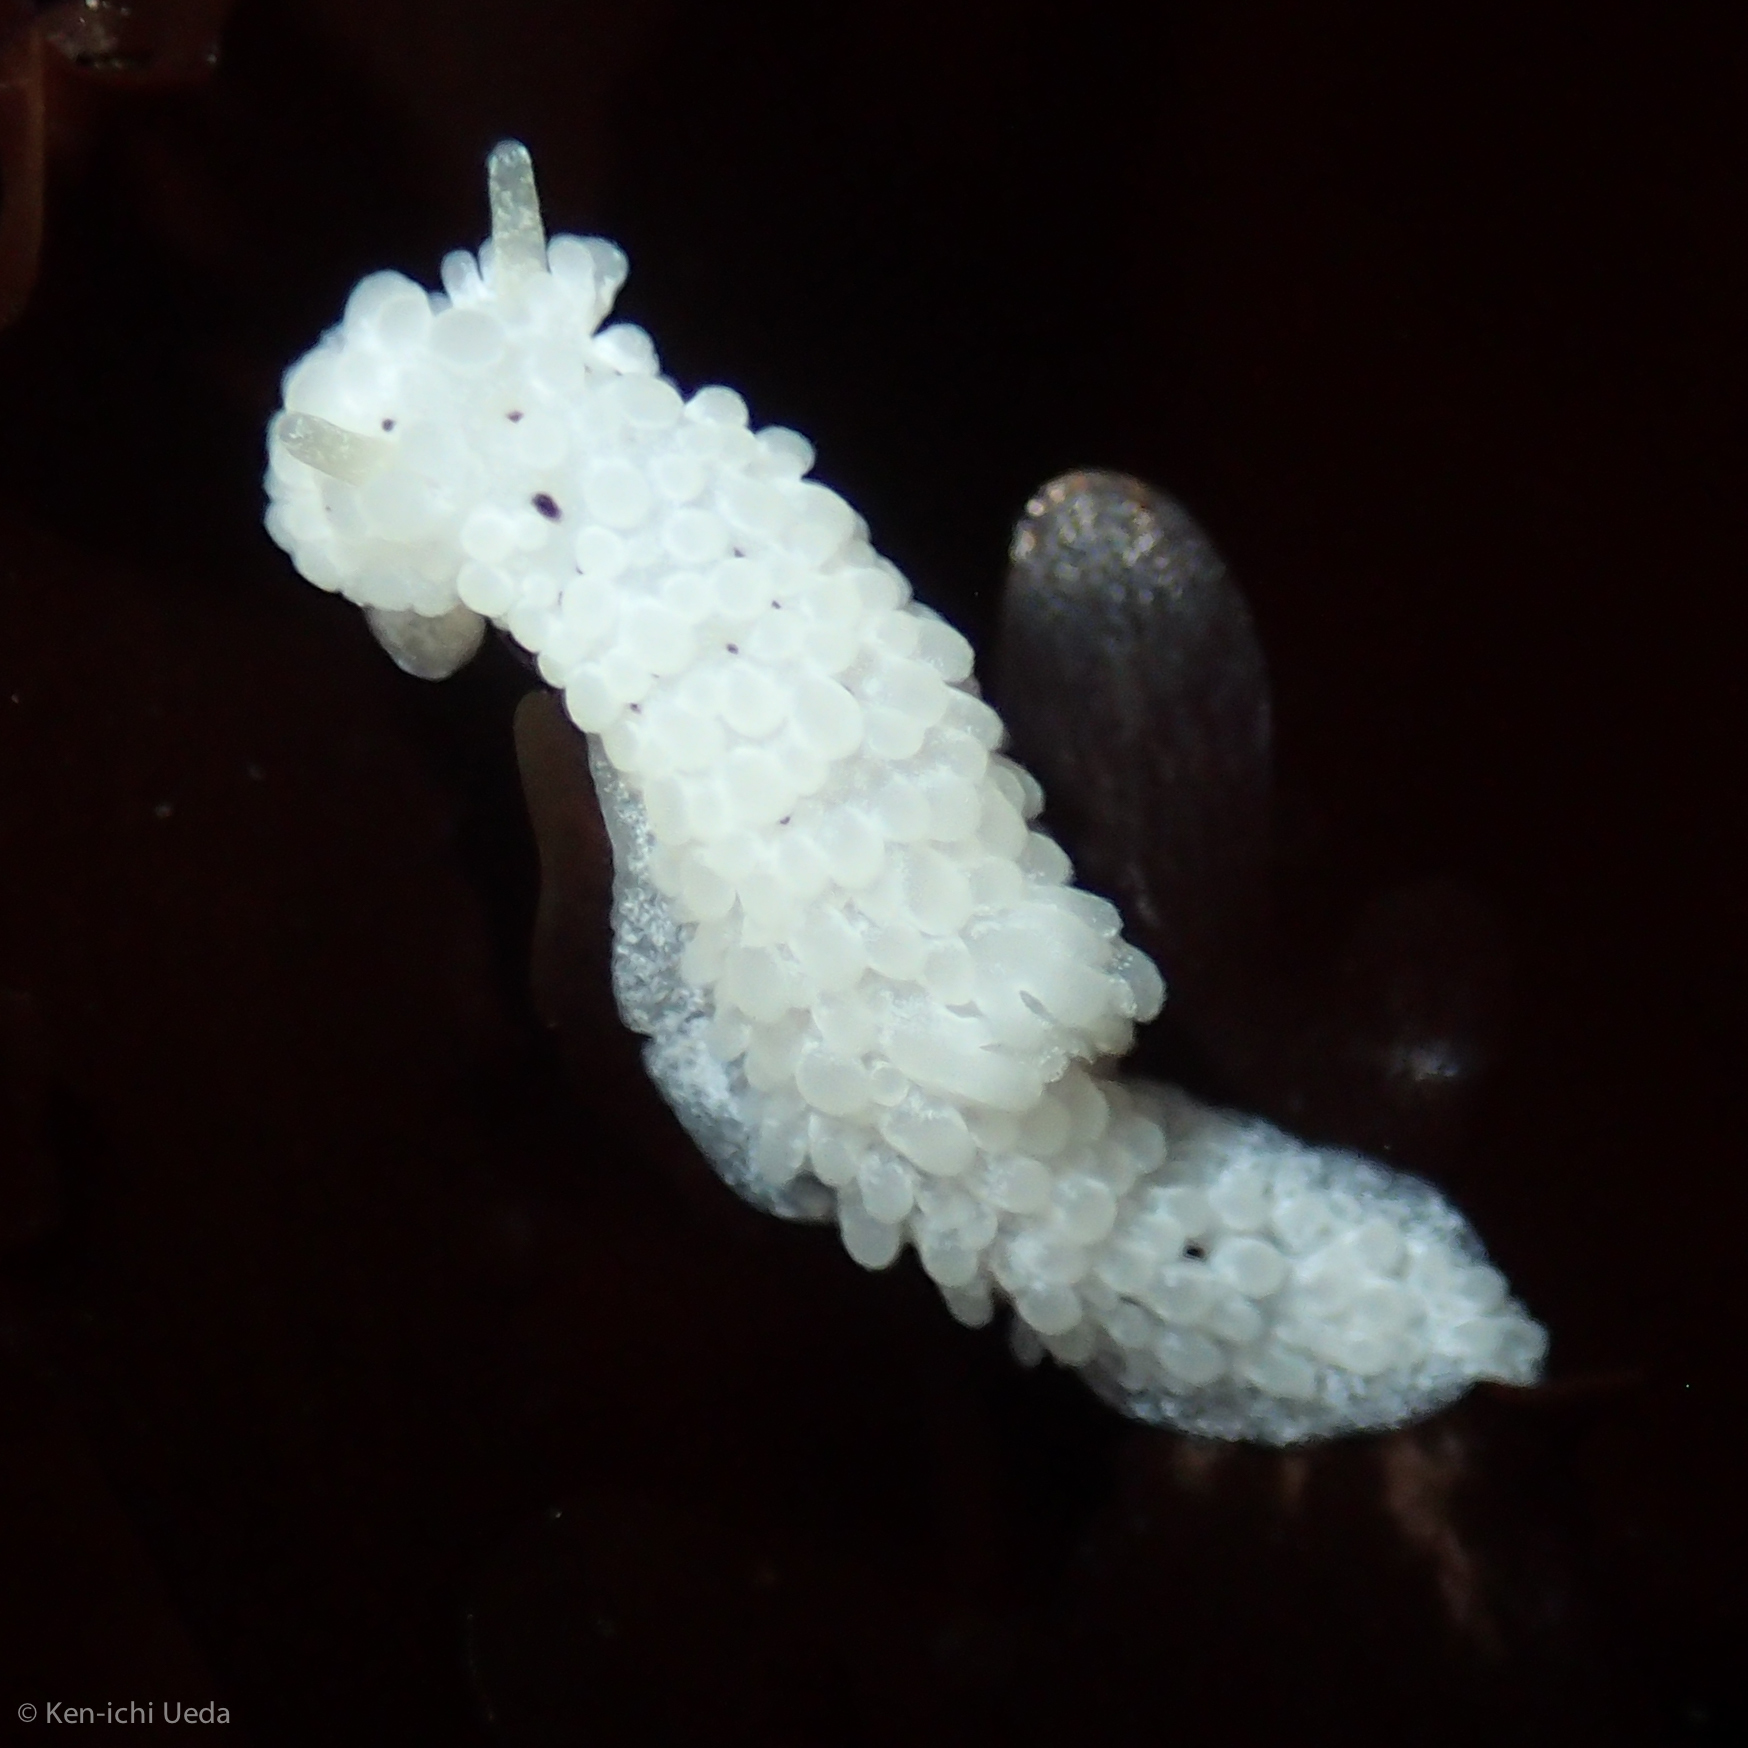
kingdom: Animalia
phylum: Mollusca
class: Gastropoda
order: Nudibranchia
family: Aegiridae
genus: Aegires
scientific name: Aegires albopunctatus
